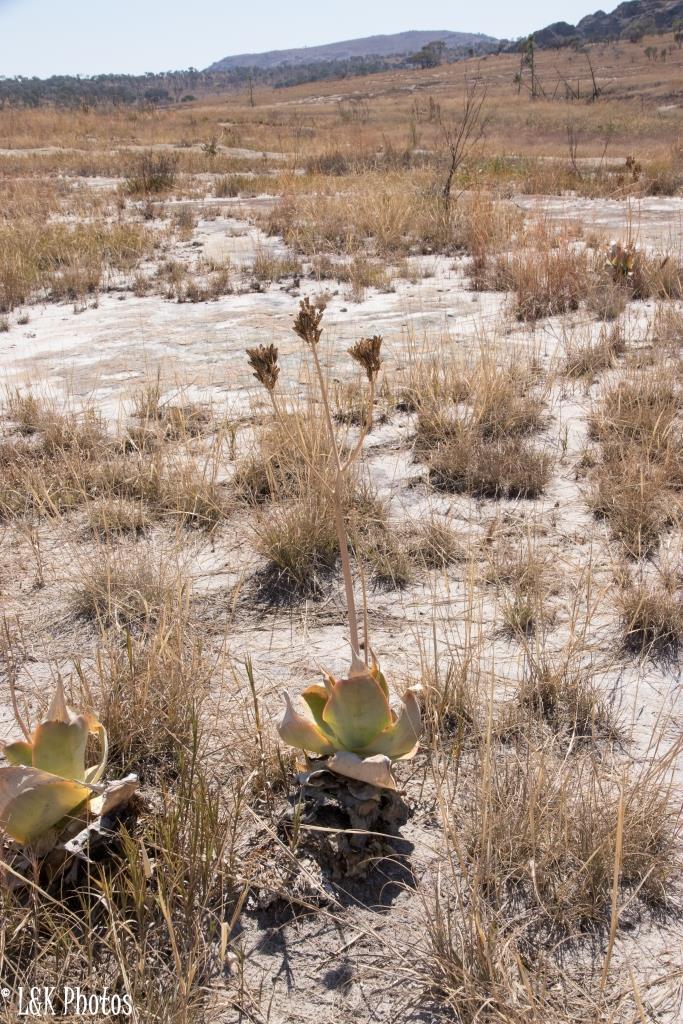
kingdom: Plantae
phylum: Tracheophyta
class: Liliopsida
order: Asparagales
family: Asphodelaceae
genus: Aloe
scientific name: Aloe imalotensis
